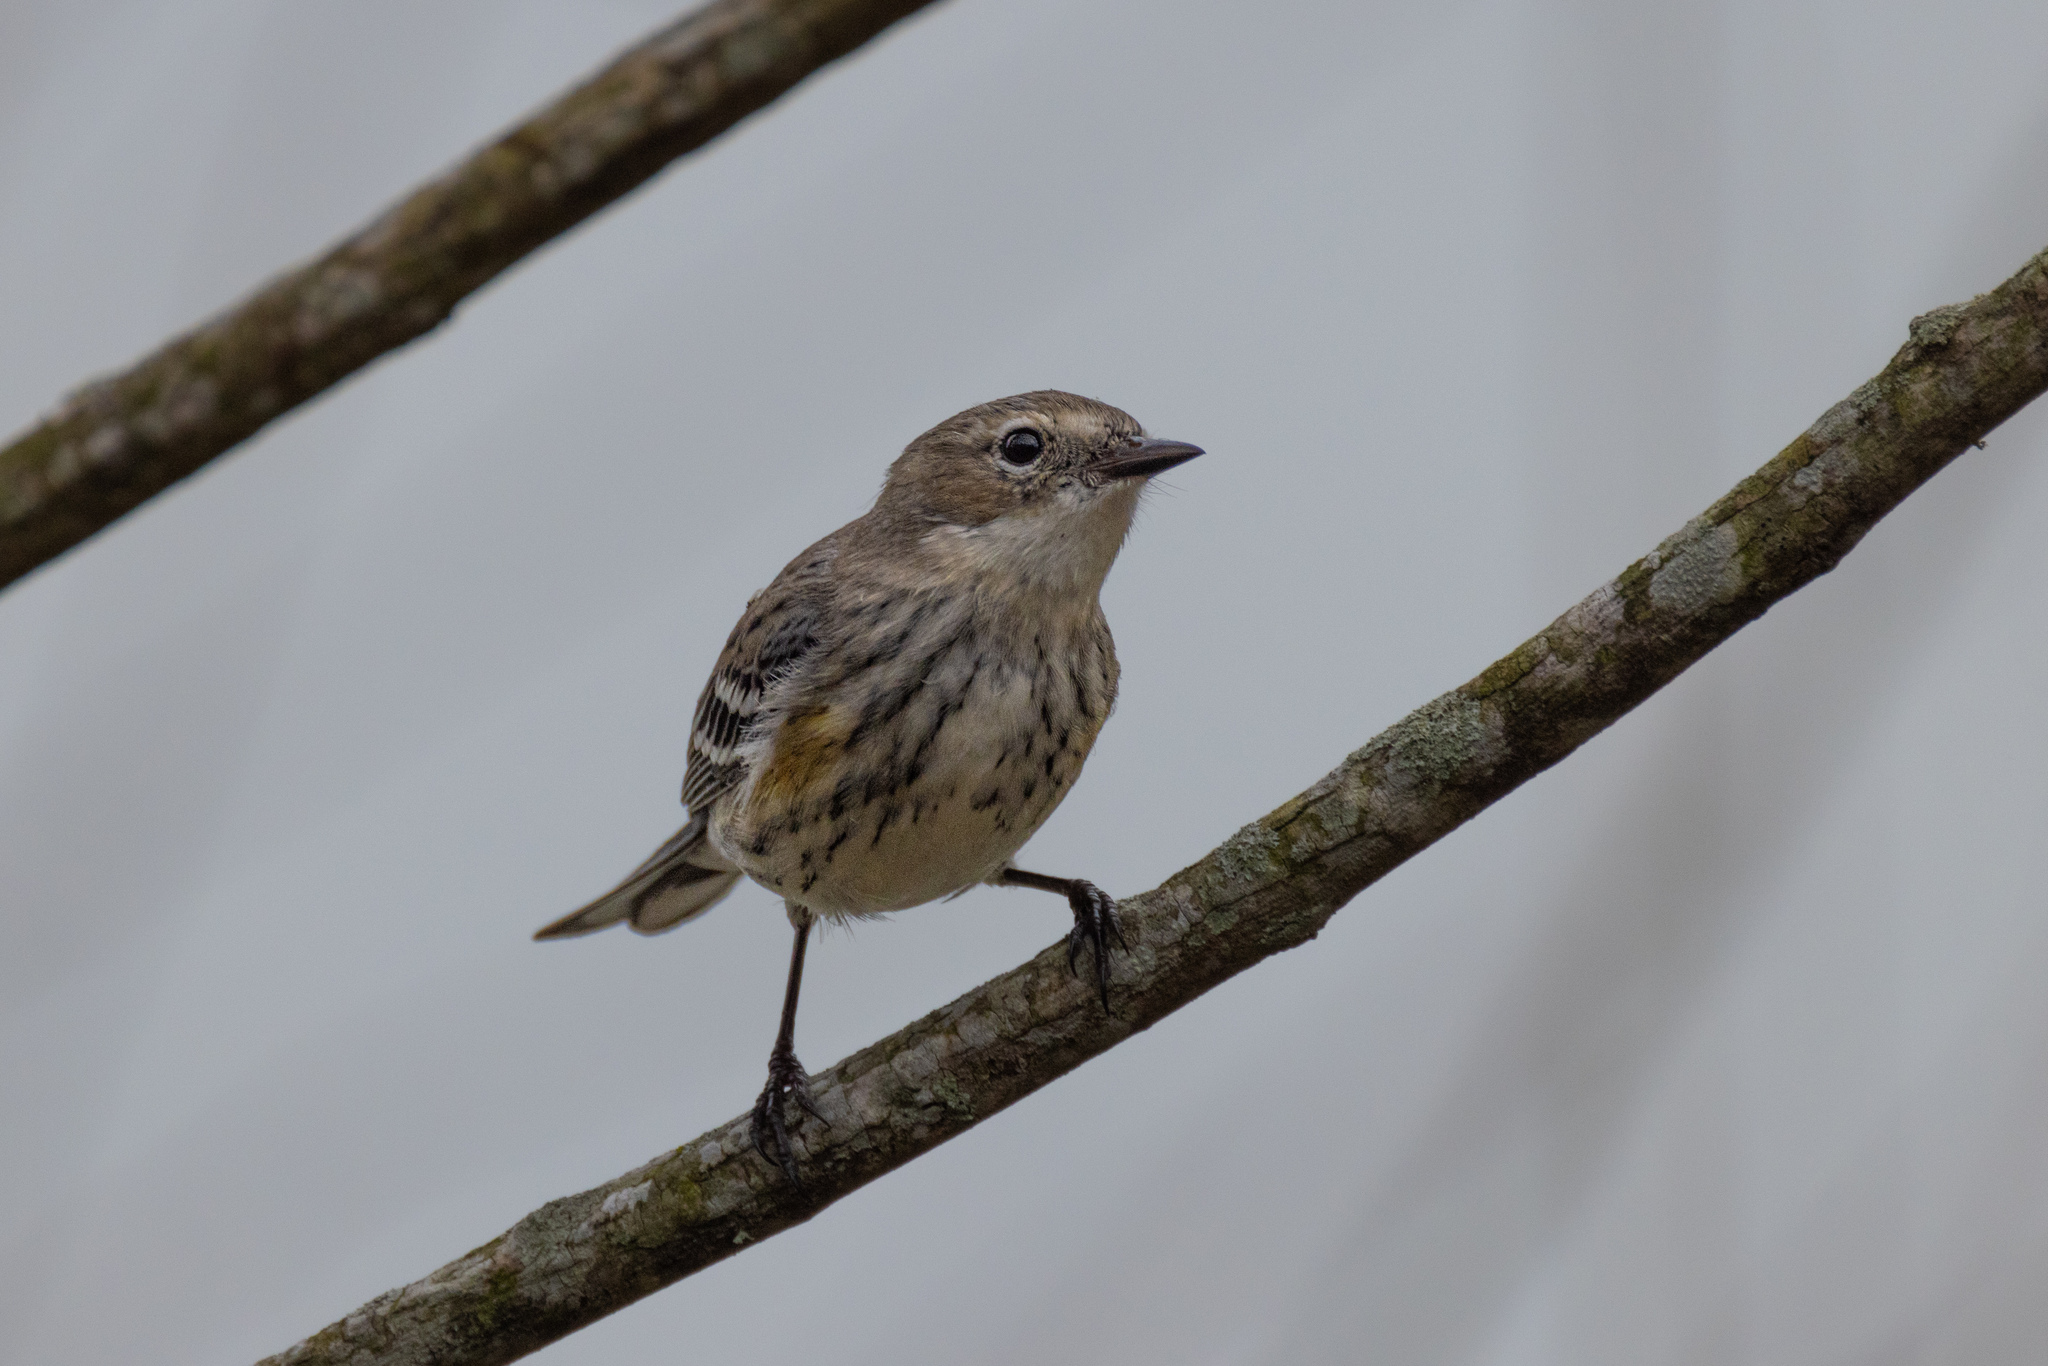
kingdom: Animalia
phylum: Chordata
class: Aves
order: Passeriformes
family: Parulidae
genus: Setophaga
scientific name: Setophaga coronata
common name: Myrtle warbler
